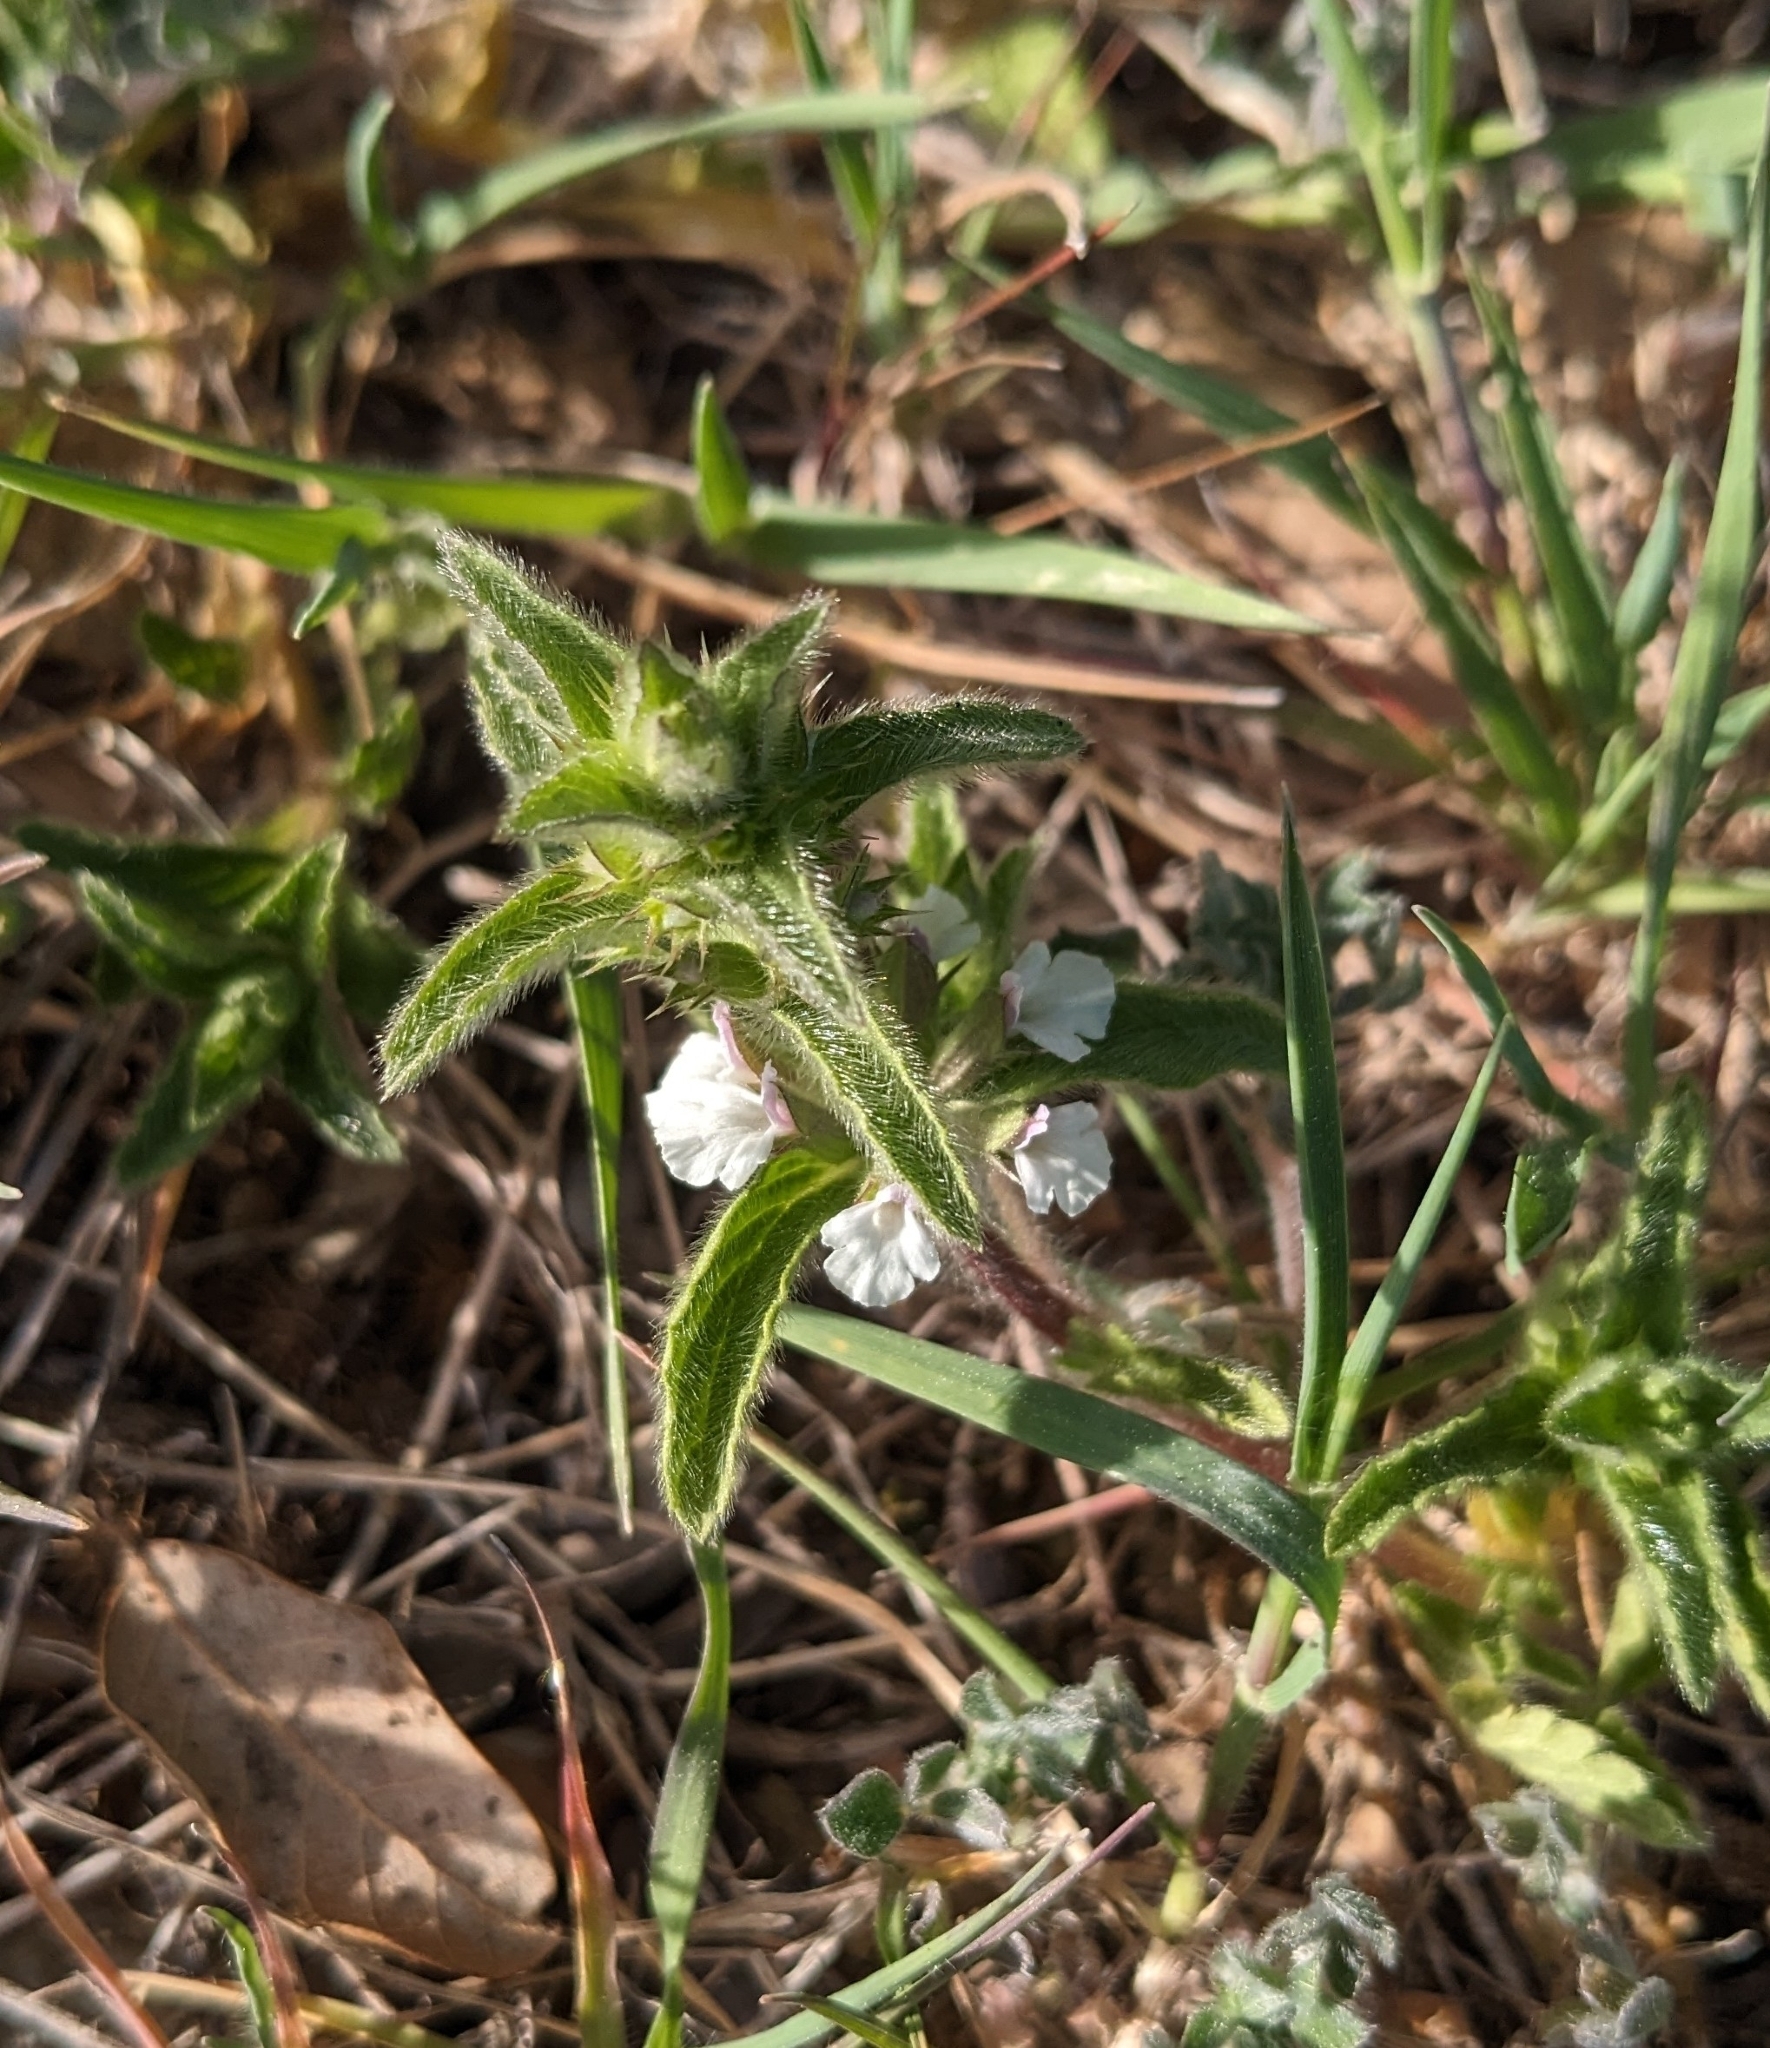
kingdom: Plantae
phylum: Tracheophyta
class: Magnoliopsida
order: Lamiales
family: Lamiaceae
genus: Sideritis
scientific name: Sideritis romana
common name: Simplebeak ironwort
